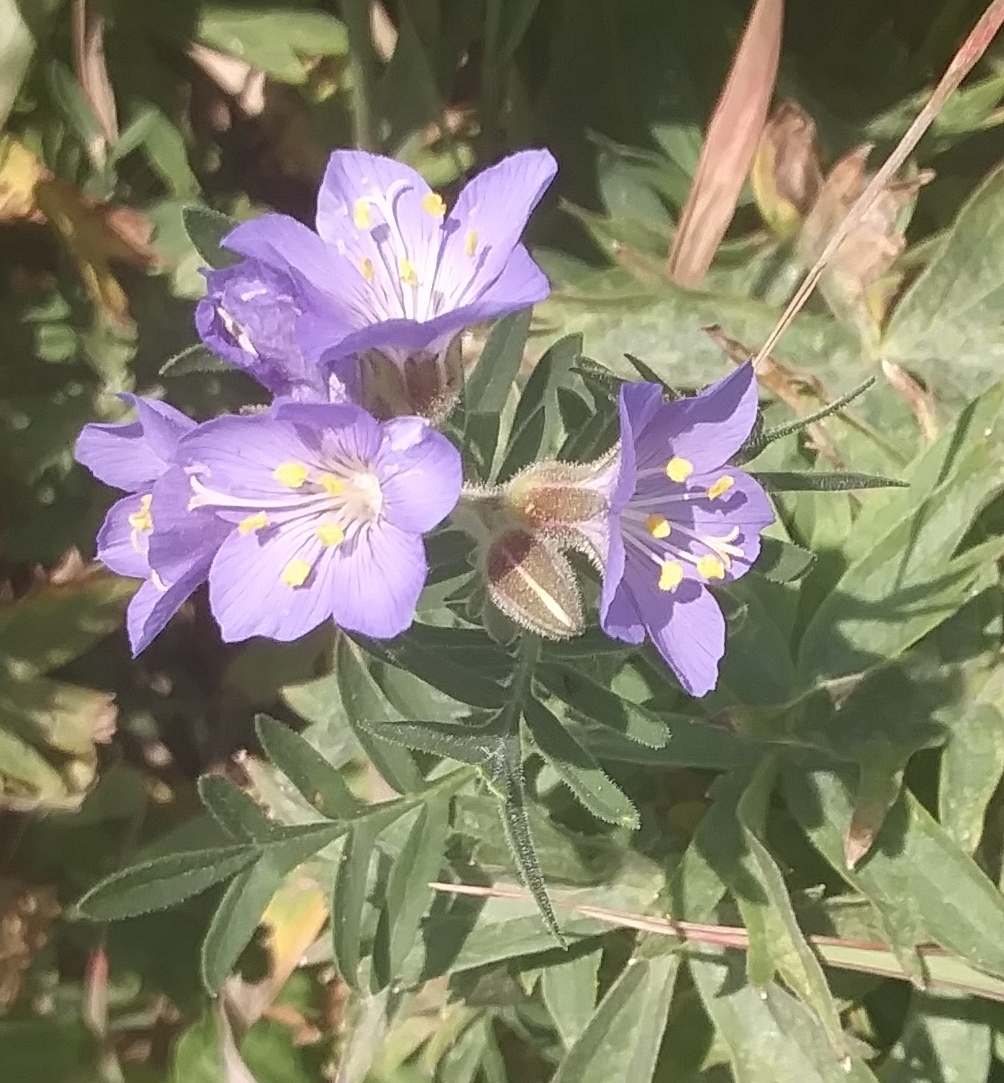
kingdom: Plantae
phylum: Tracheophyta
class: Magnoliopsida
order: Ericales
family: Polemoniaceae
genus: Polemonium
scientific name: Polemonium foliosissimum
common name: Leafy jacob's-ladder
